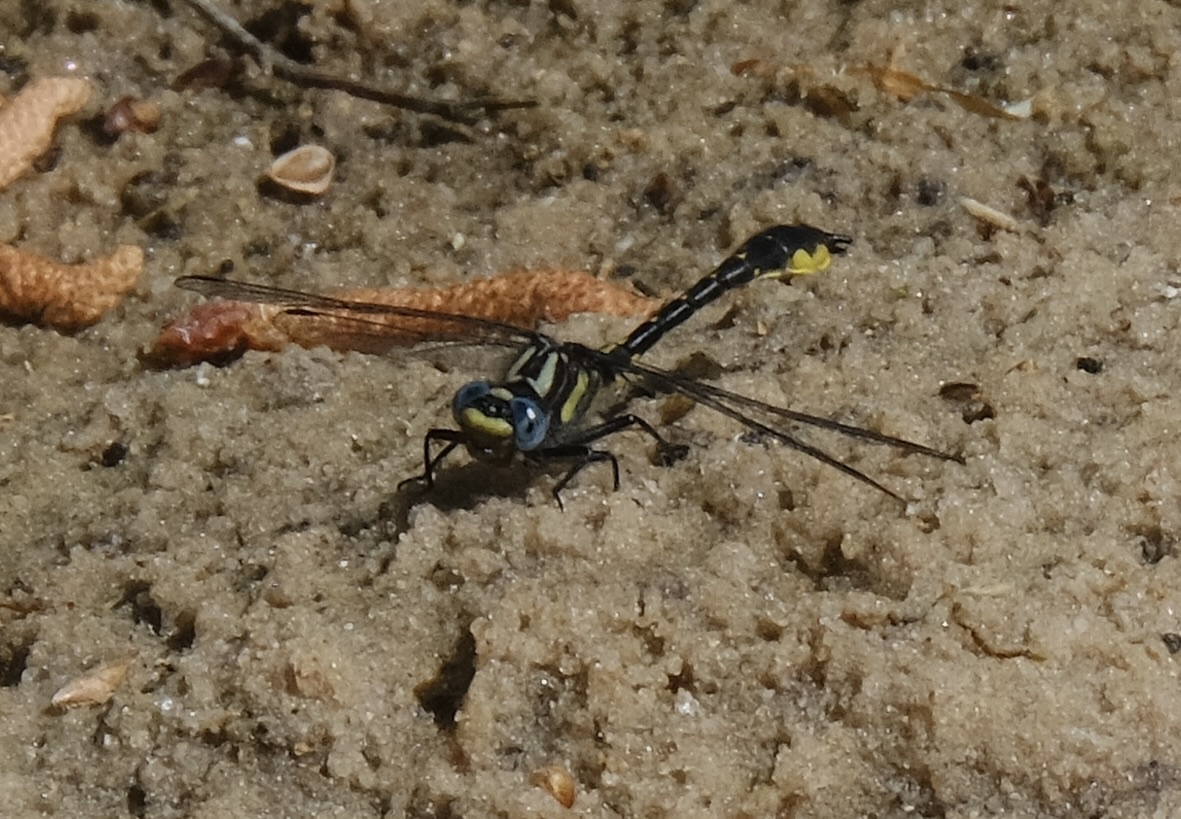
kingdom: Animalia
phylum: Arthropoda
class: Insecta
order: Odonata
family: Gomphidae
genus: Hylogomphus
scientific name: Hylogomphus apomyius
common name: Banner clubtail
